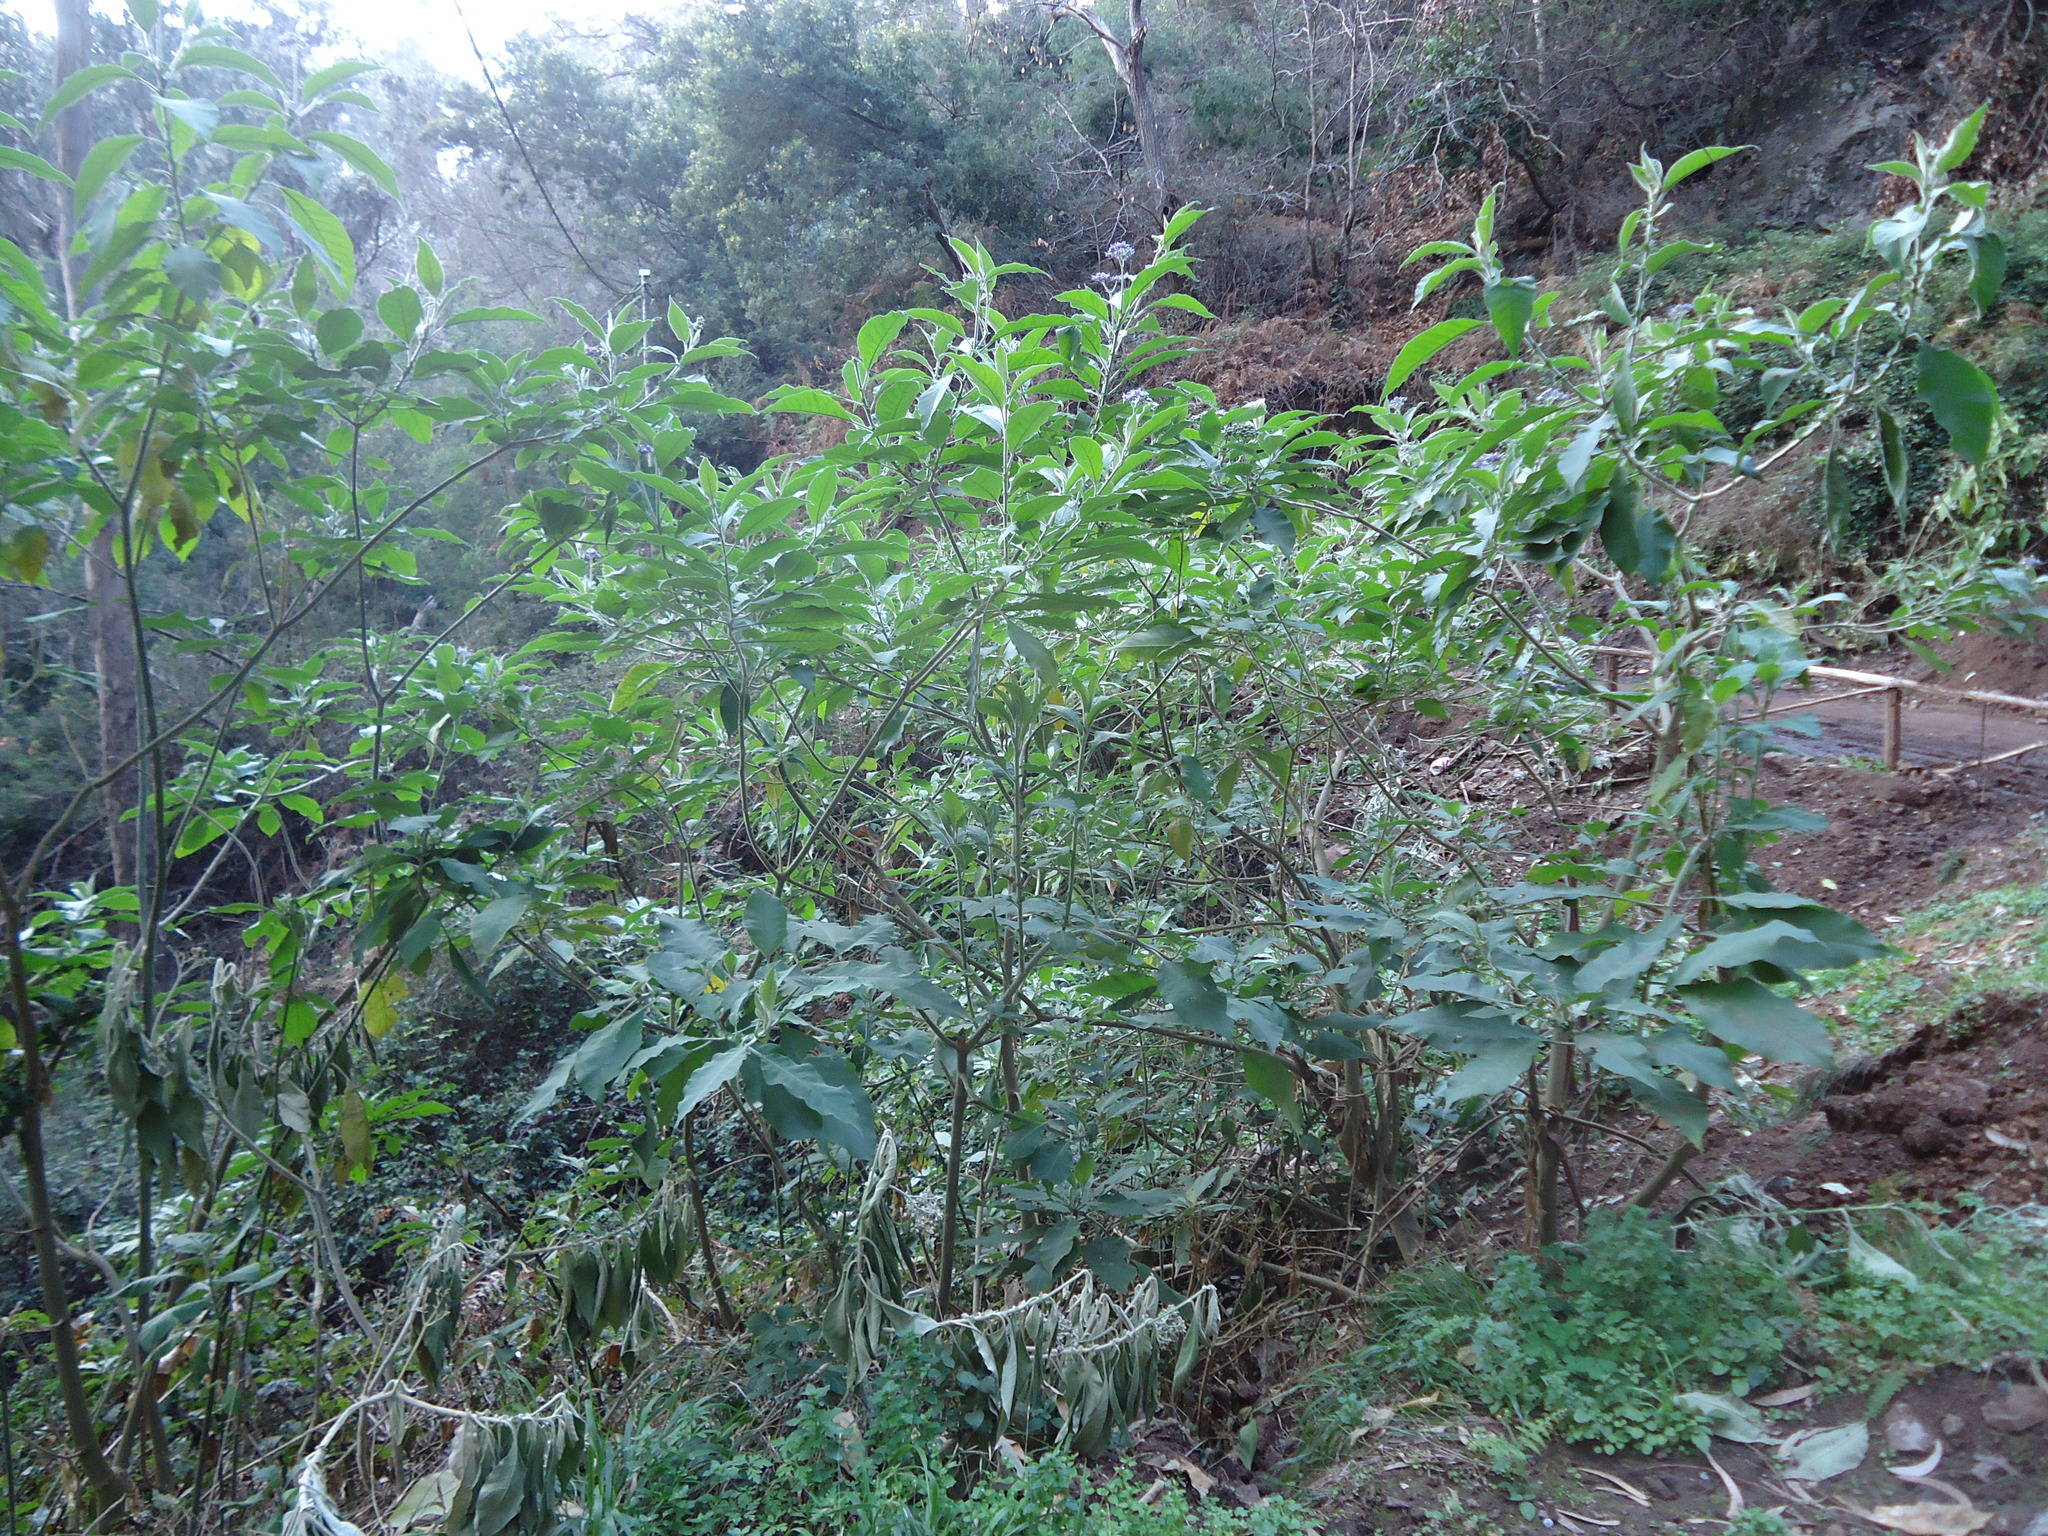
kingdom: Plantae
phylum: Tracheophyta
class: Magnoliopsida
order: Solanales
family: Solanaceae
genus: Solanum
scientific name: Solanum mauritianum
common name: Earleaf nightshade
